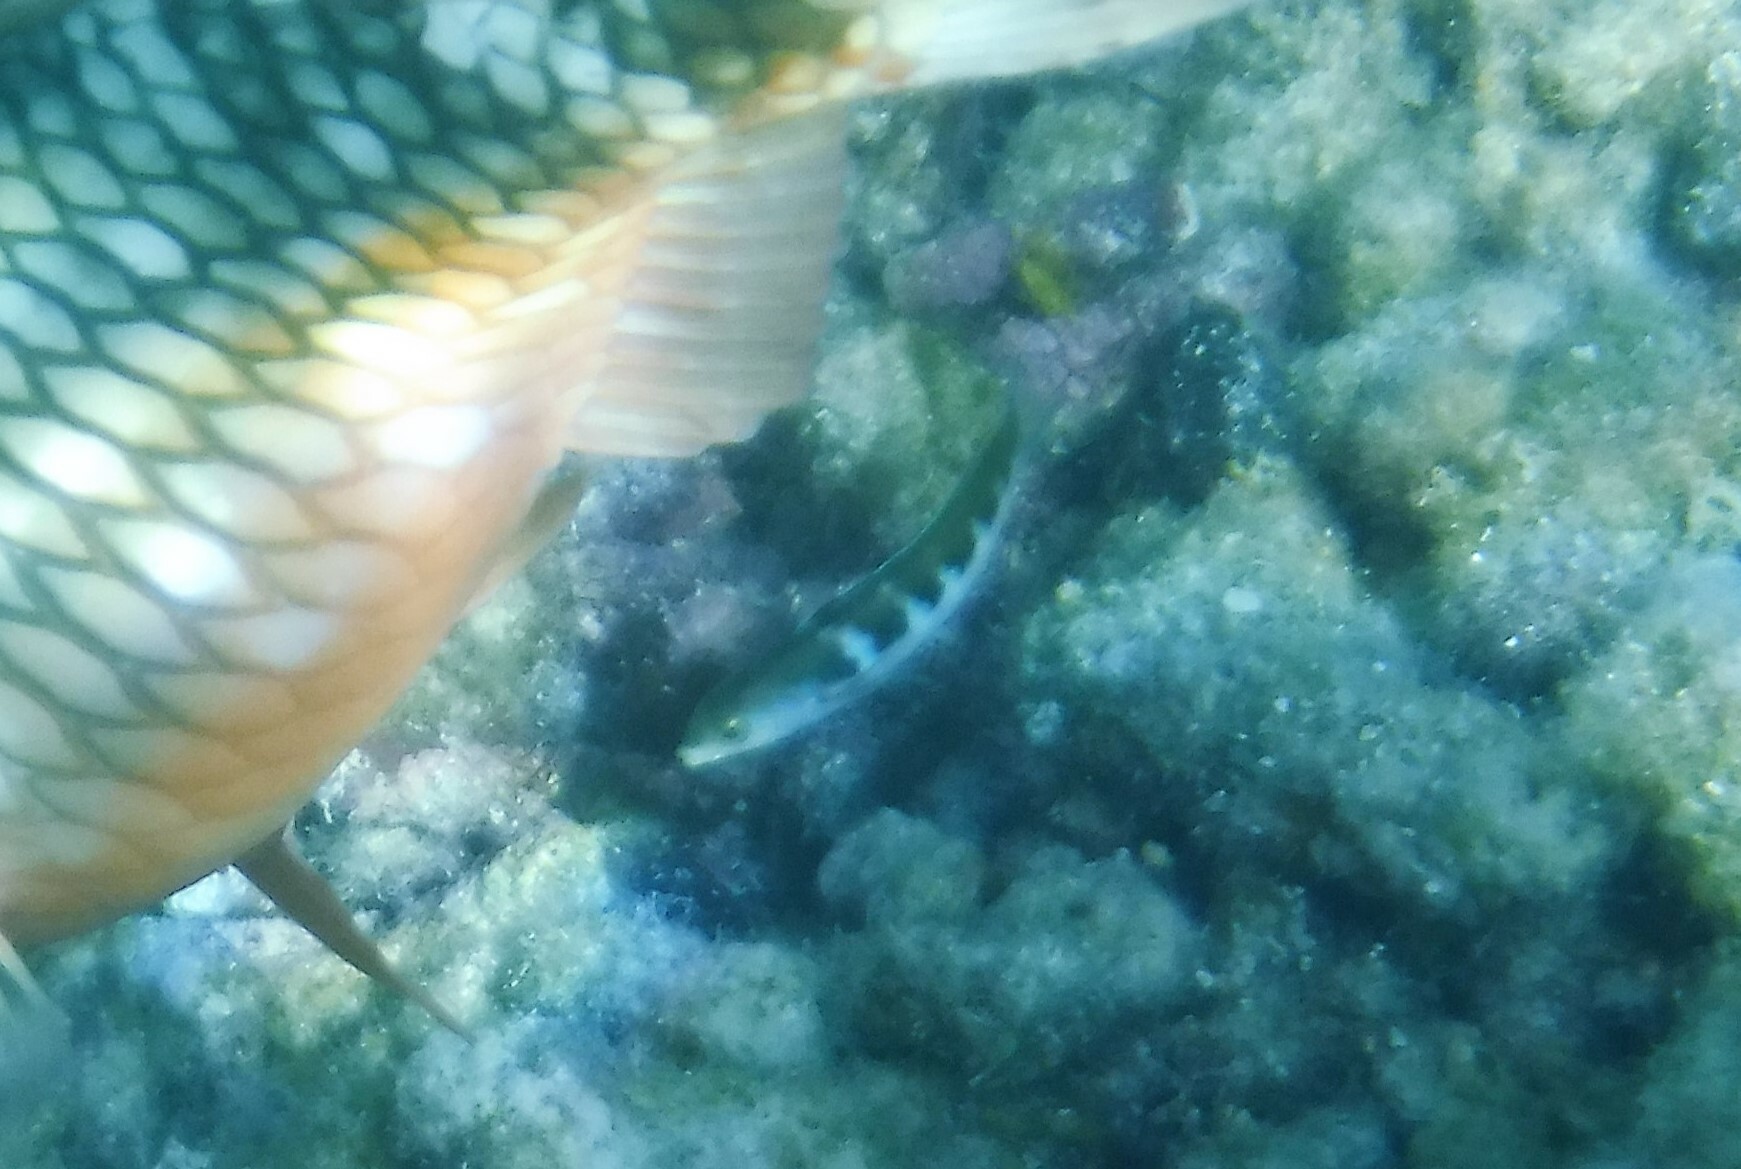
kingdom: Animalia
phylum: Chordata
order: Perciformes
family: Labridae
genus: Thalassoma
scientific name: Thalassoma bifasciatum
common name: Bluehead wrasse
